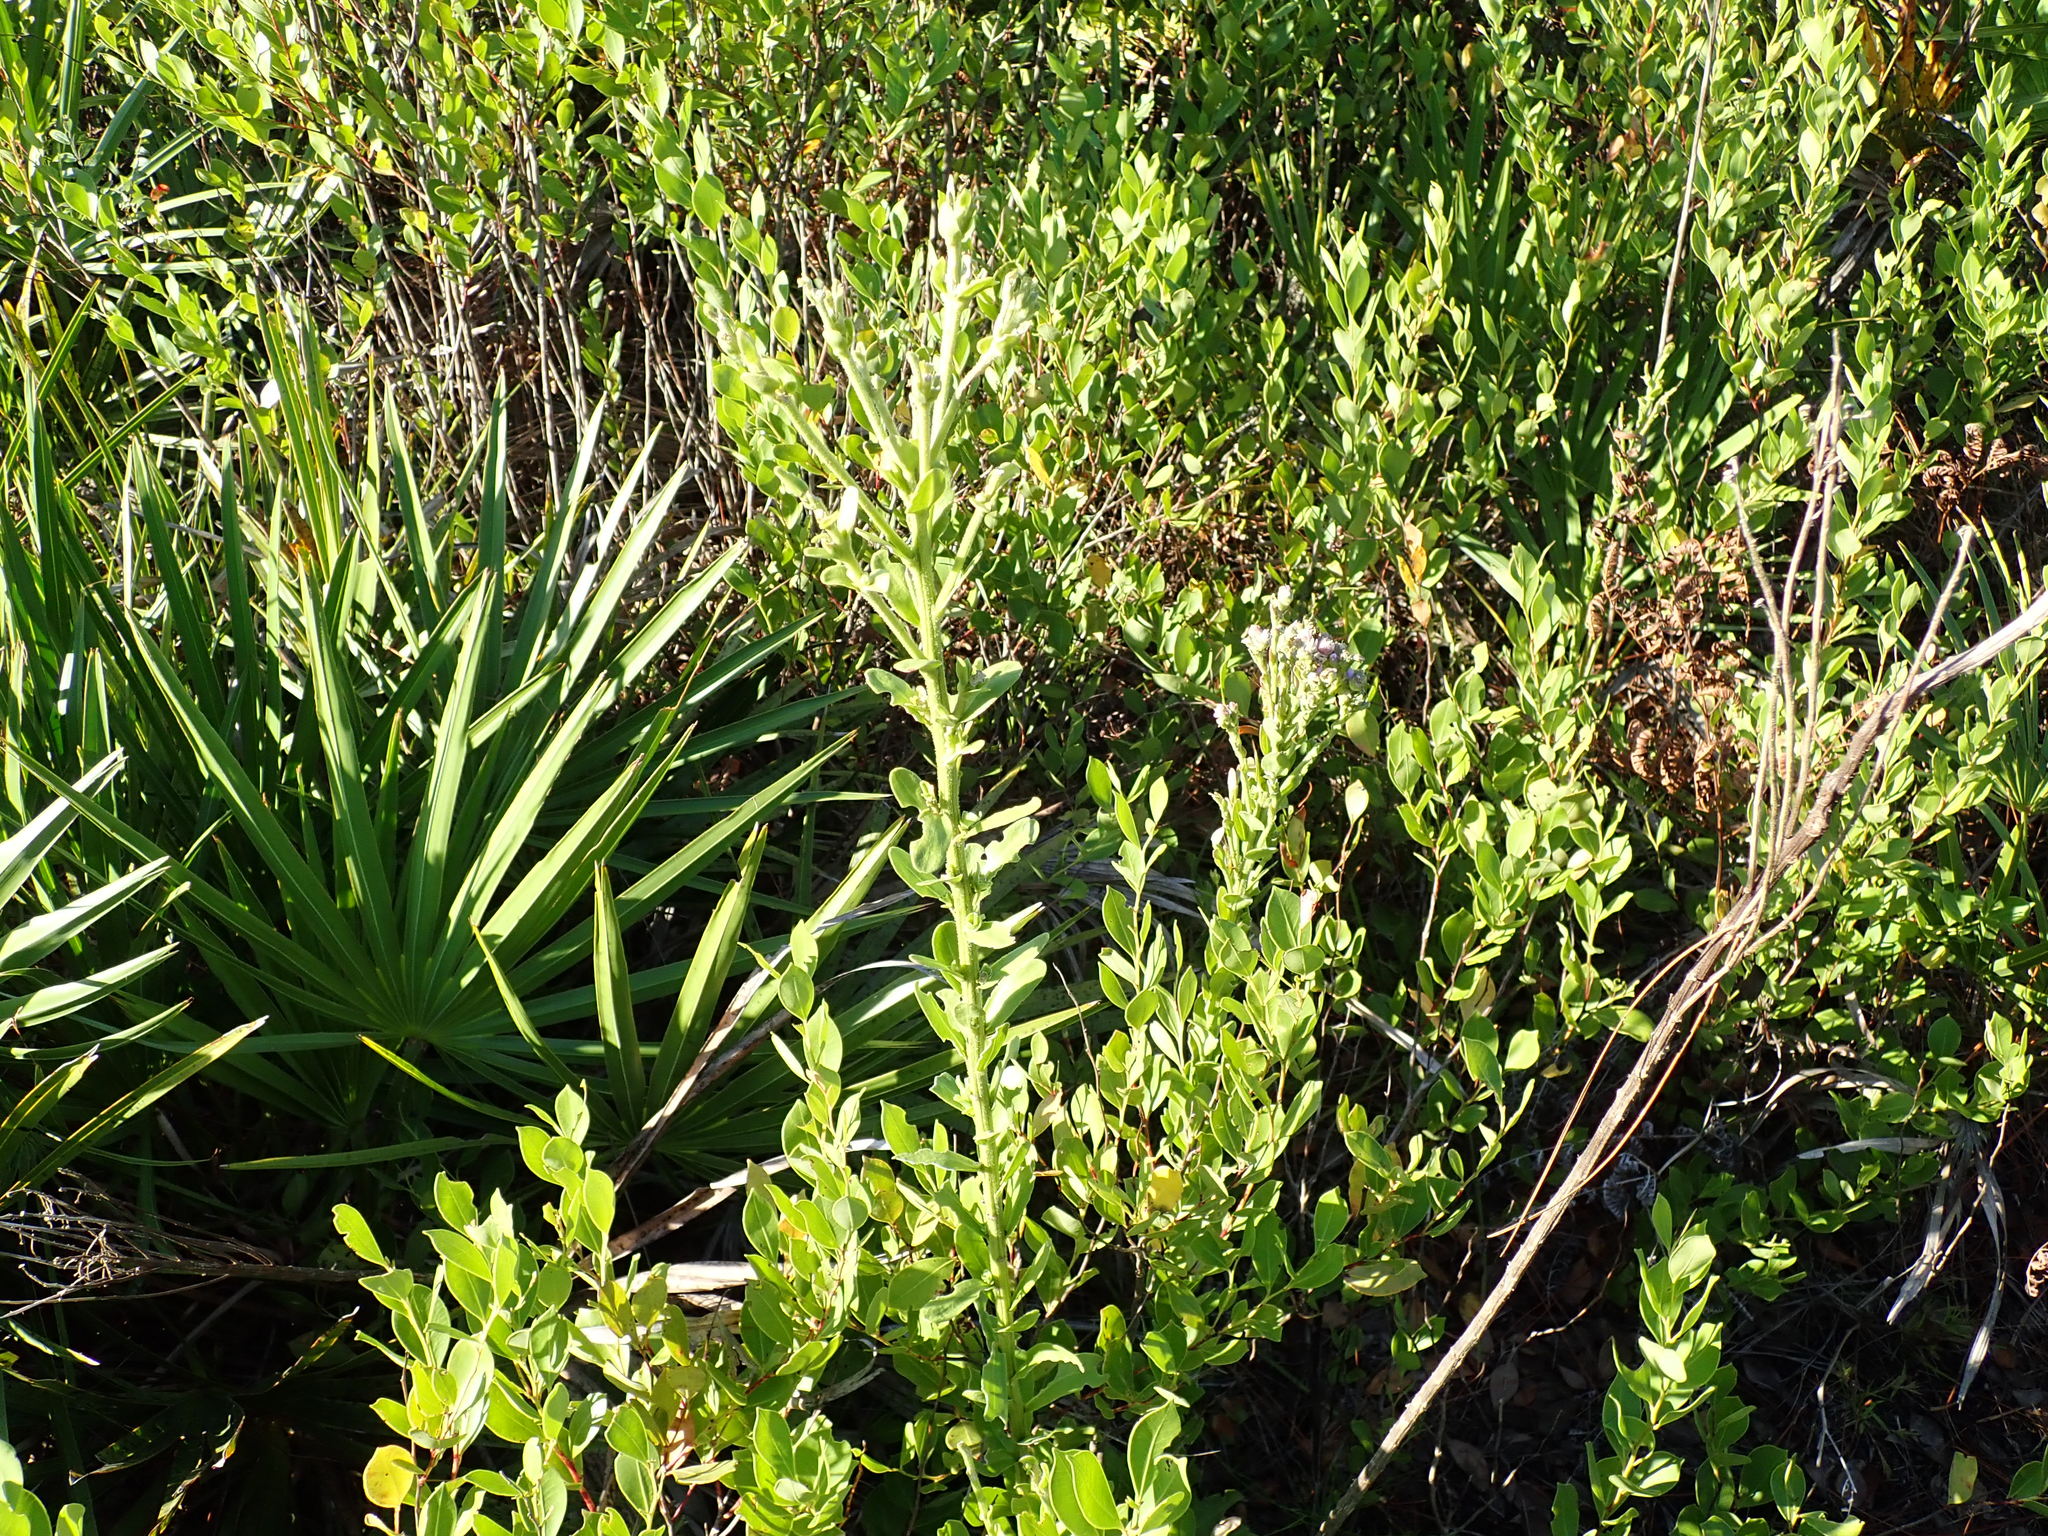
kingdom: Plantae
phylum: Tracheophyta
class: Magnoliopsida
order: Asterales
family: Asteraceae
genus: Carphephorus
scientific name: Carphephorus corymbosus
